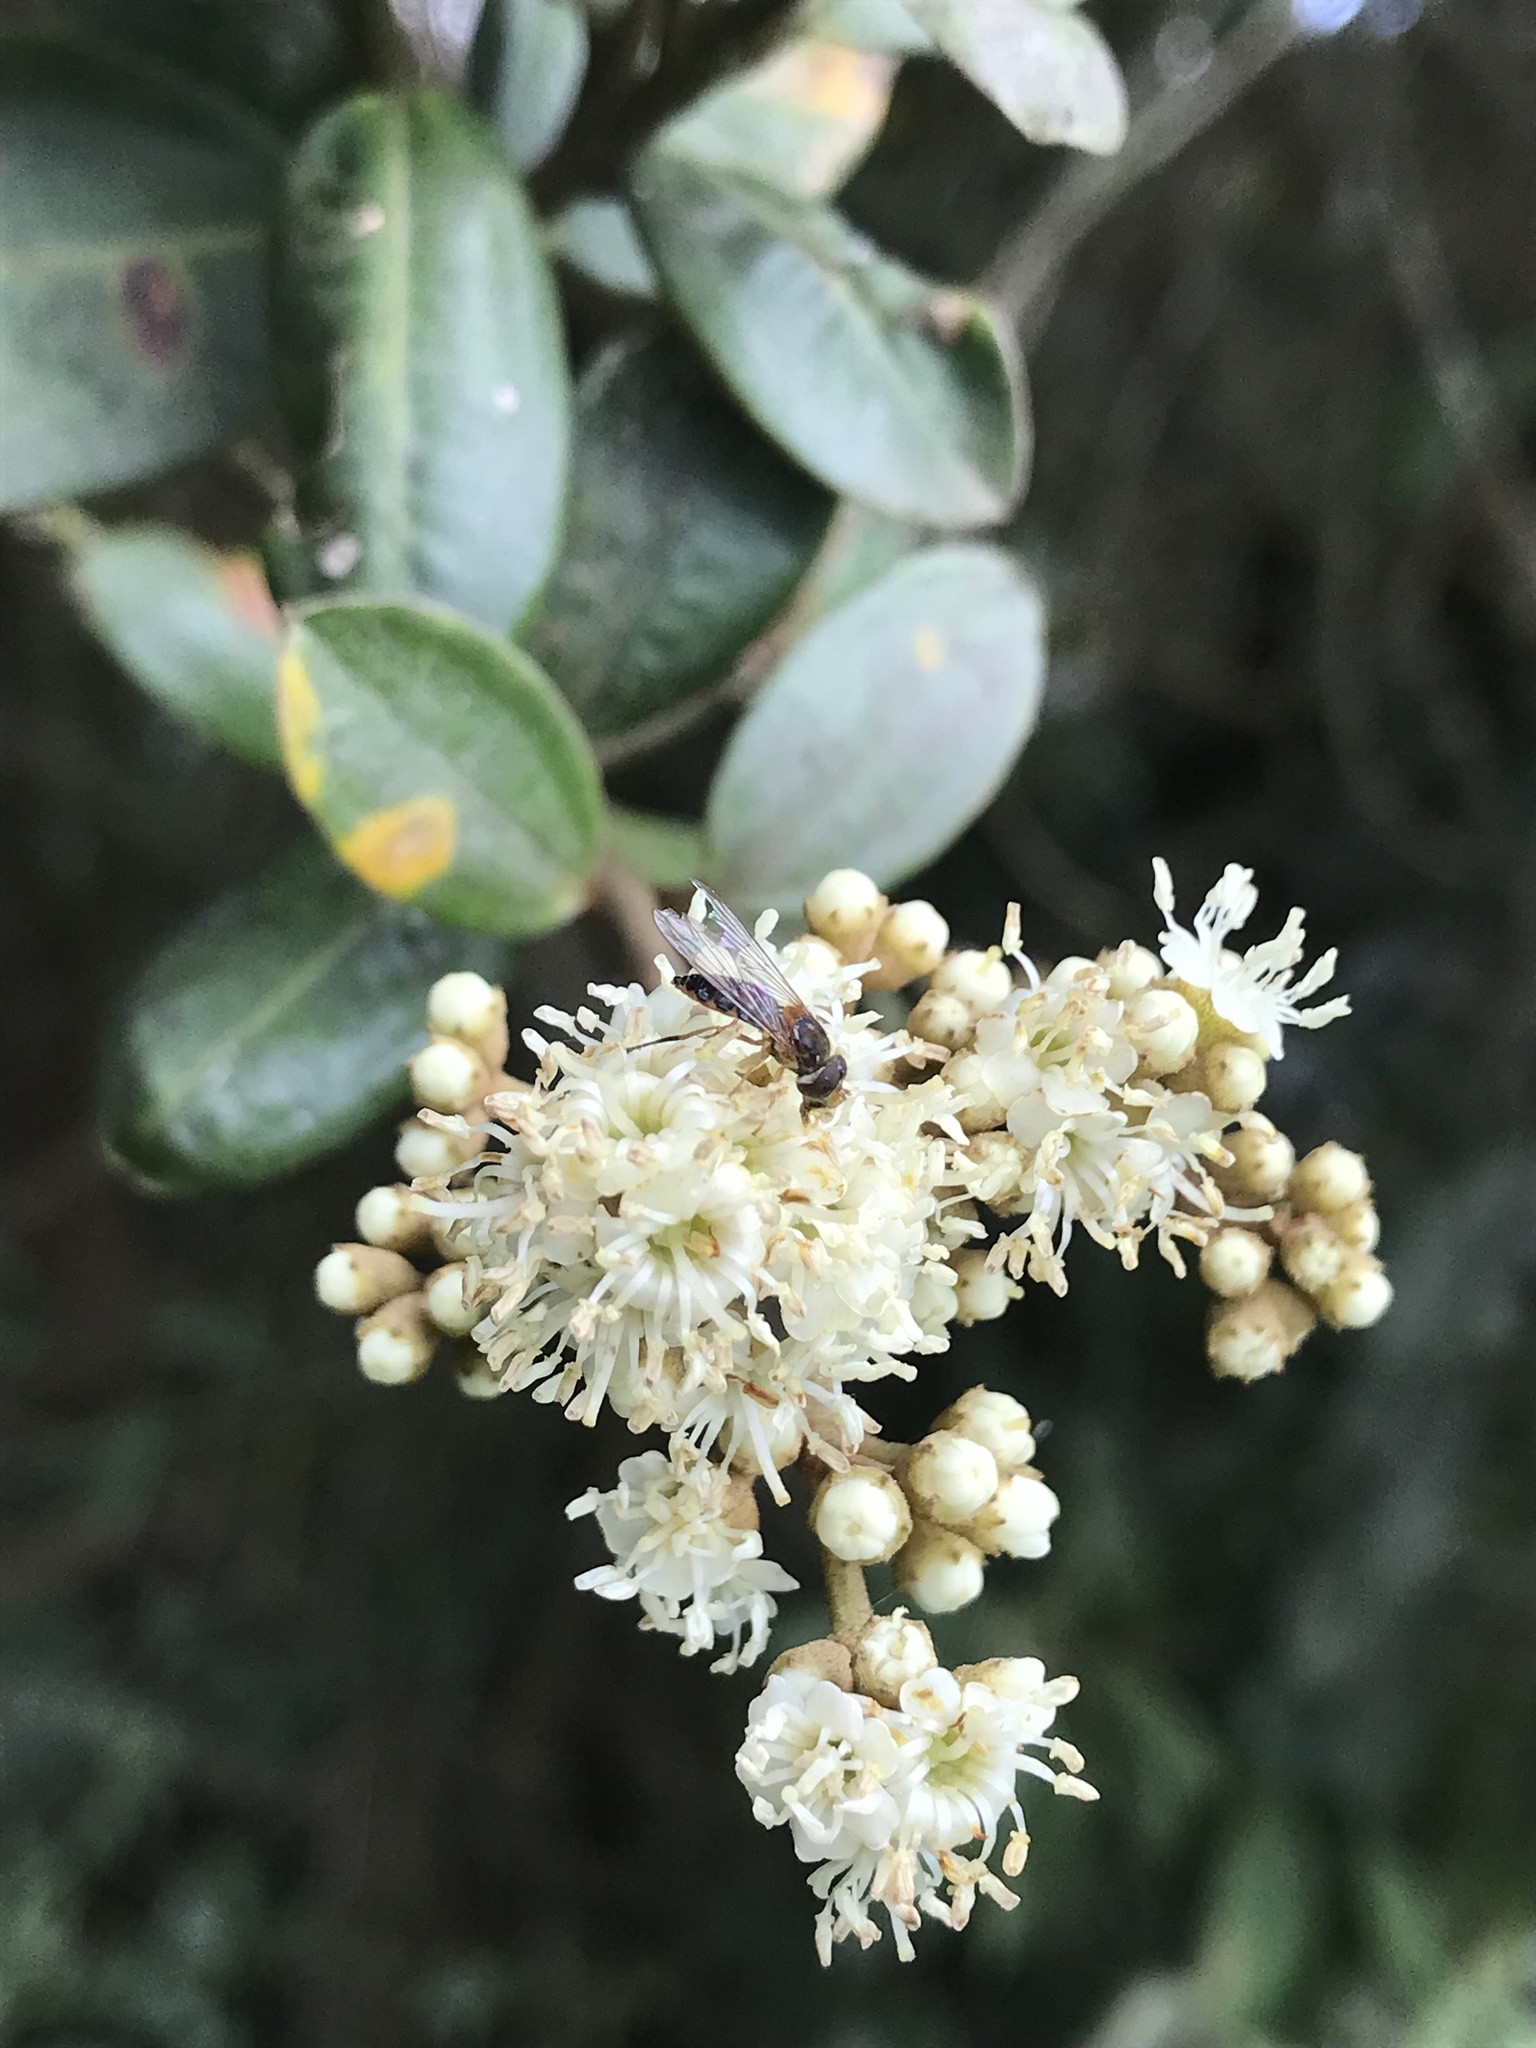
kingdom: Plantae
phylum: Tracheophyta
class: Magnoliopsida
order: Myrtales
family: Melastomataceae
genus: Miconia
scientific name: Miconia squamulosa
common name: Squamulose maya
